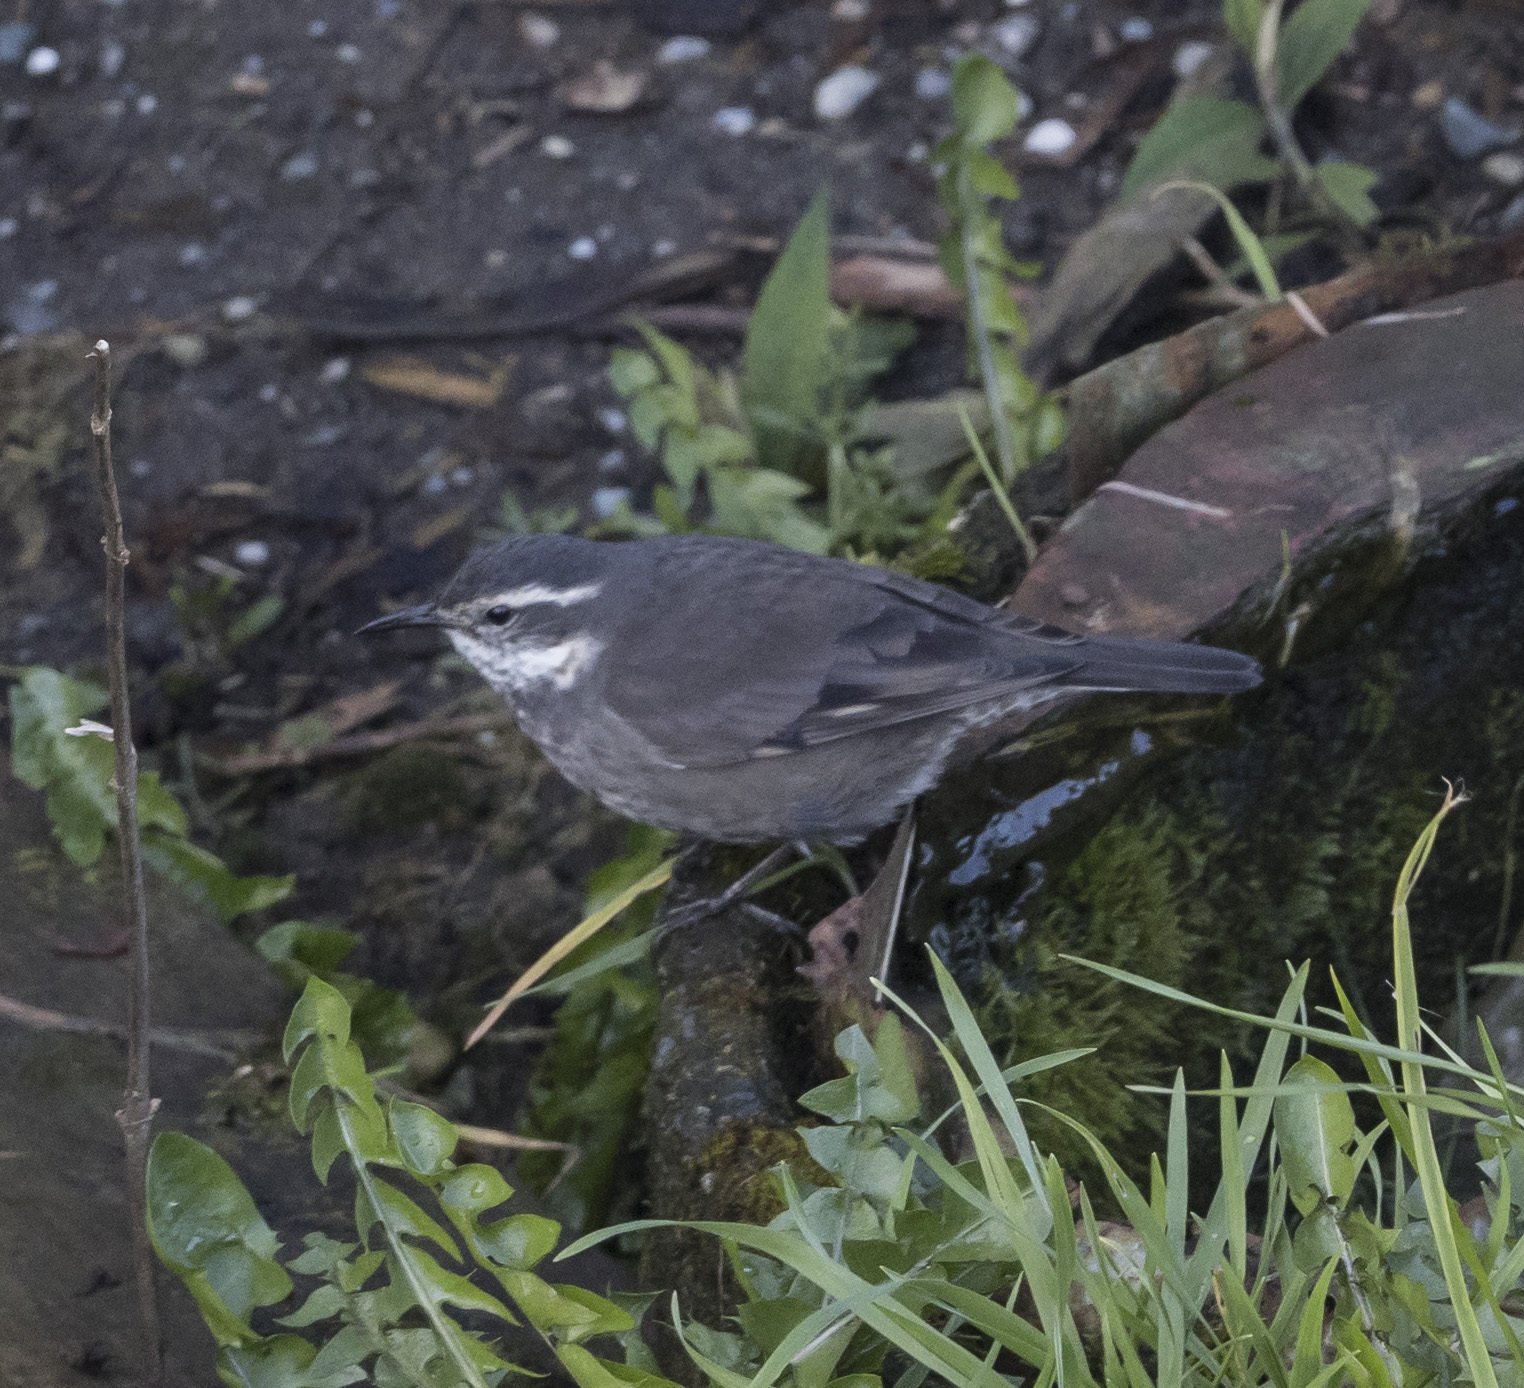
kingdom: Animalia
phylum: Chordata
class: Aves
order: Passeriformes
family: Furnariidae
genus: Cinclodes
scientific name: Cinclodes oustaleti
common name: Grey-flanked cinclodes
